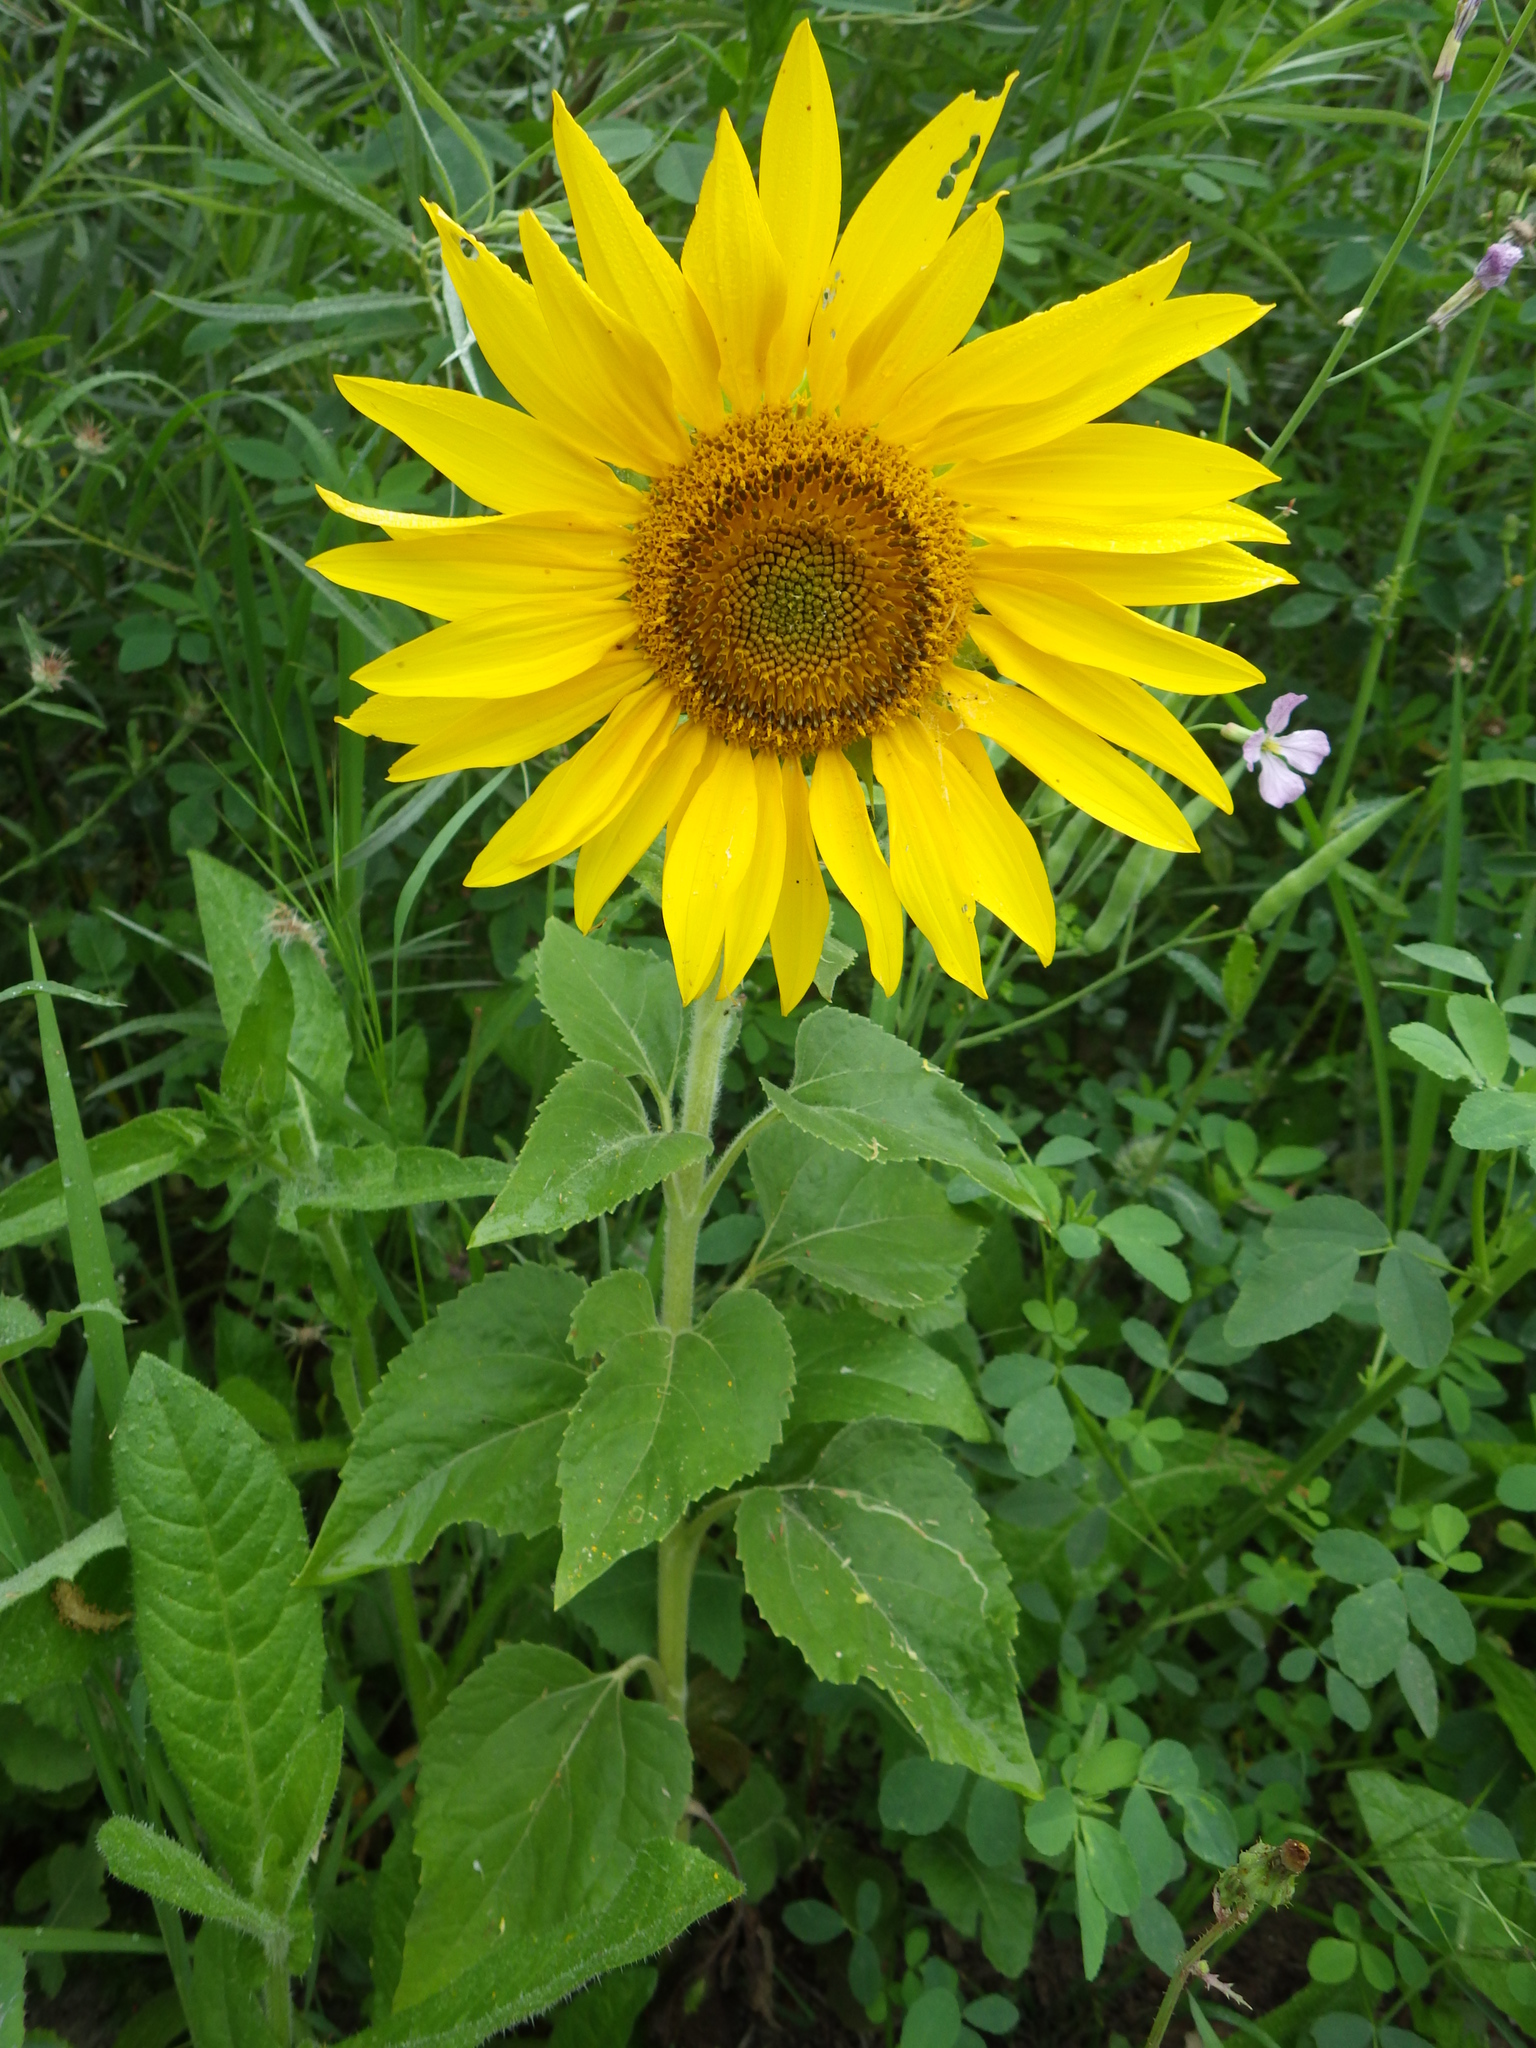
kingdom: Plantae
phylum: Tracheophyta
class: Magnoliopsida
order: Asterales
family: Asteraceae
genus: Helianthus
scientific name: Helianthus annuus
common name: Sunflower
